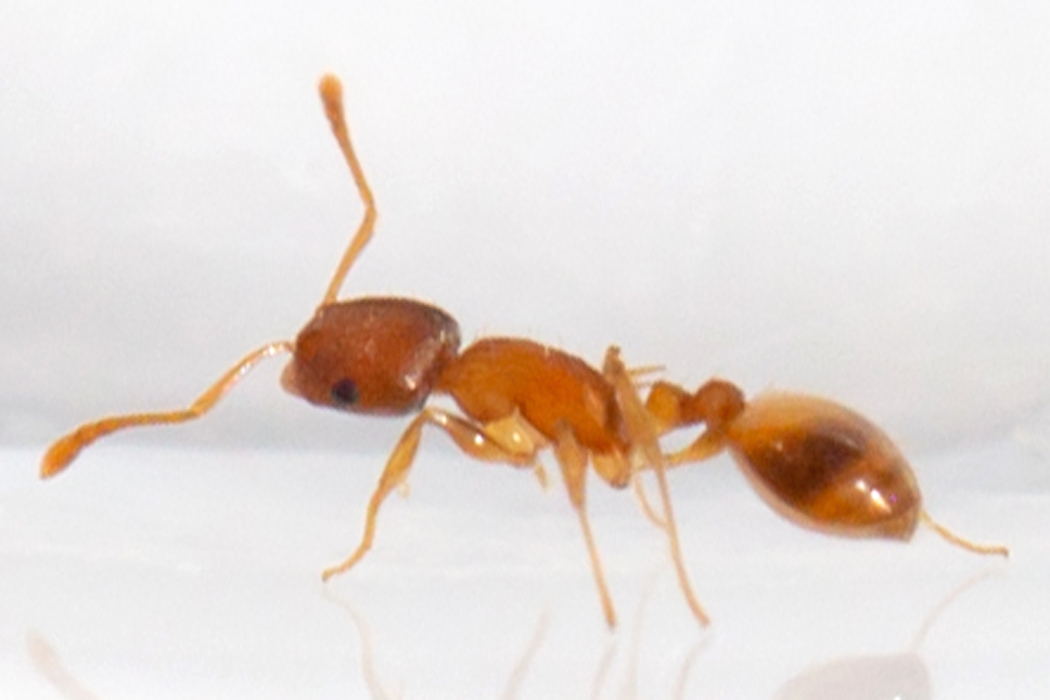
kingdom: Animalia
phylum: Arthropoda
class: Insecta
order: Hymenoptera
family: Formicidae
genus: Temnothorax
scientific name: Temnothorax curvispinosus
